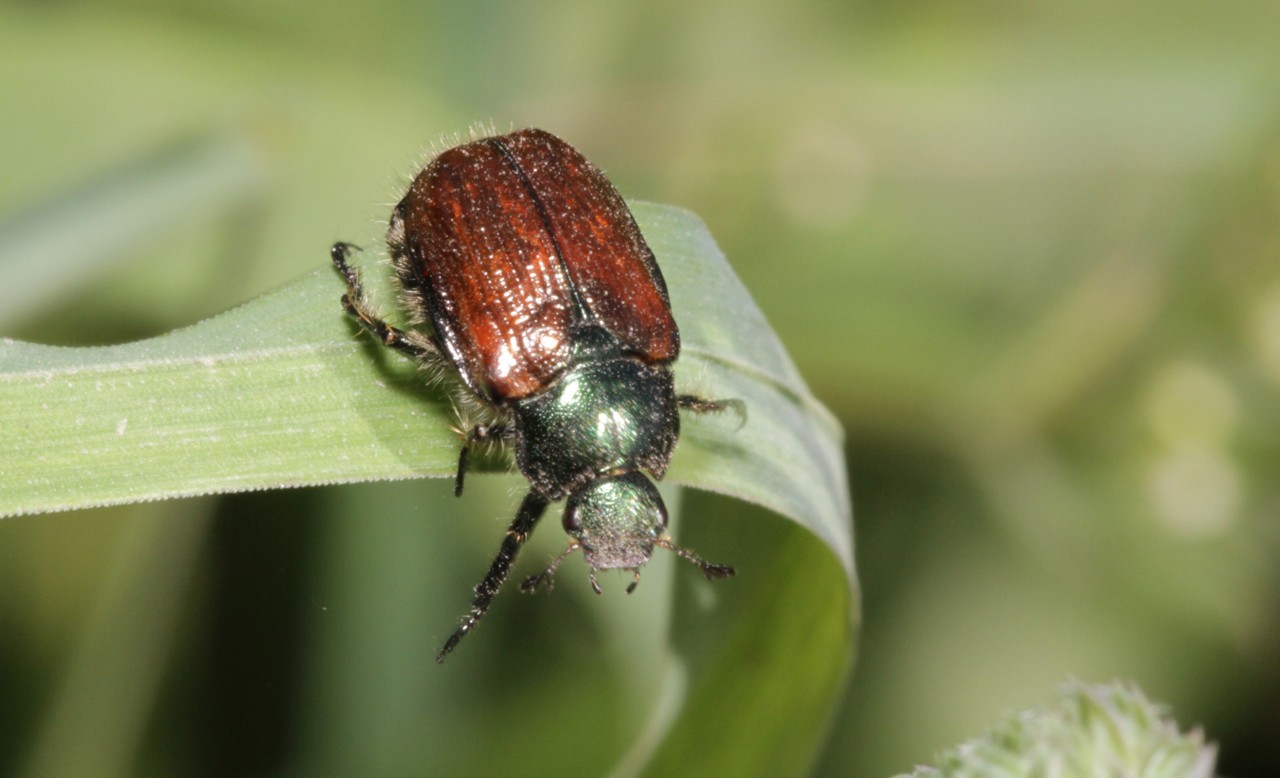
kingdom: Animalia
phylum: Arthropoda
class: Insecta
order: Coleoptera
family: Scarabaeidae
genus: Phyllopertha
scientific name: Phyllopertha horticola
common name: Garden chafer
